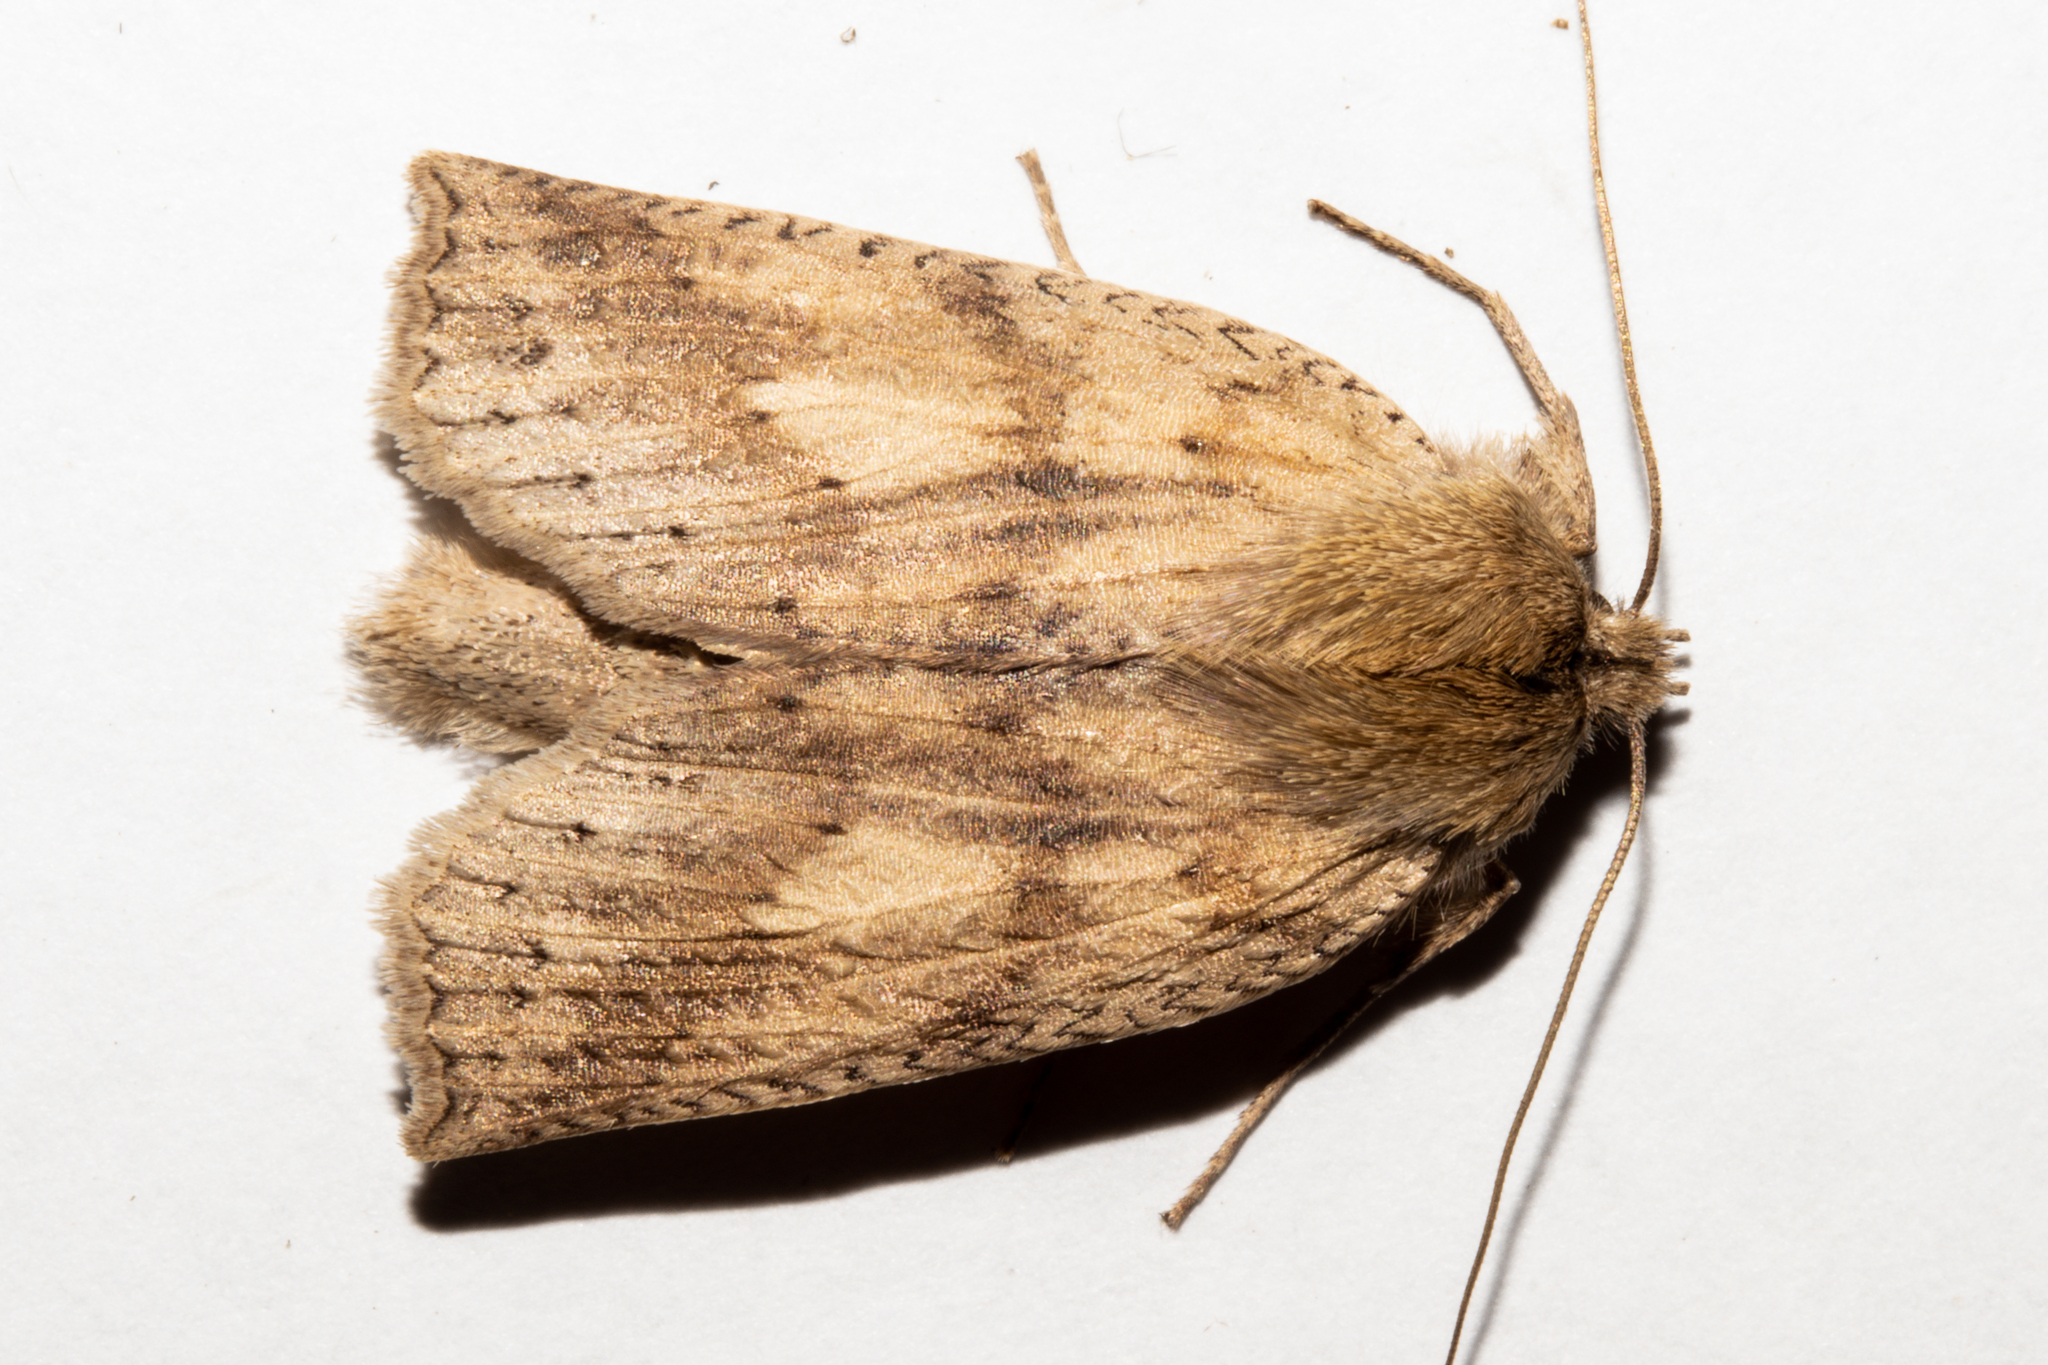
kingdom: Animalia
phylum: Arthropoda
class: Insecta
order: Lepidoptera
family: Geometridae
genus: Declana
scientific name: Declana leptomera
